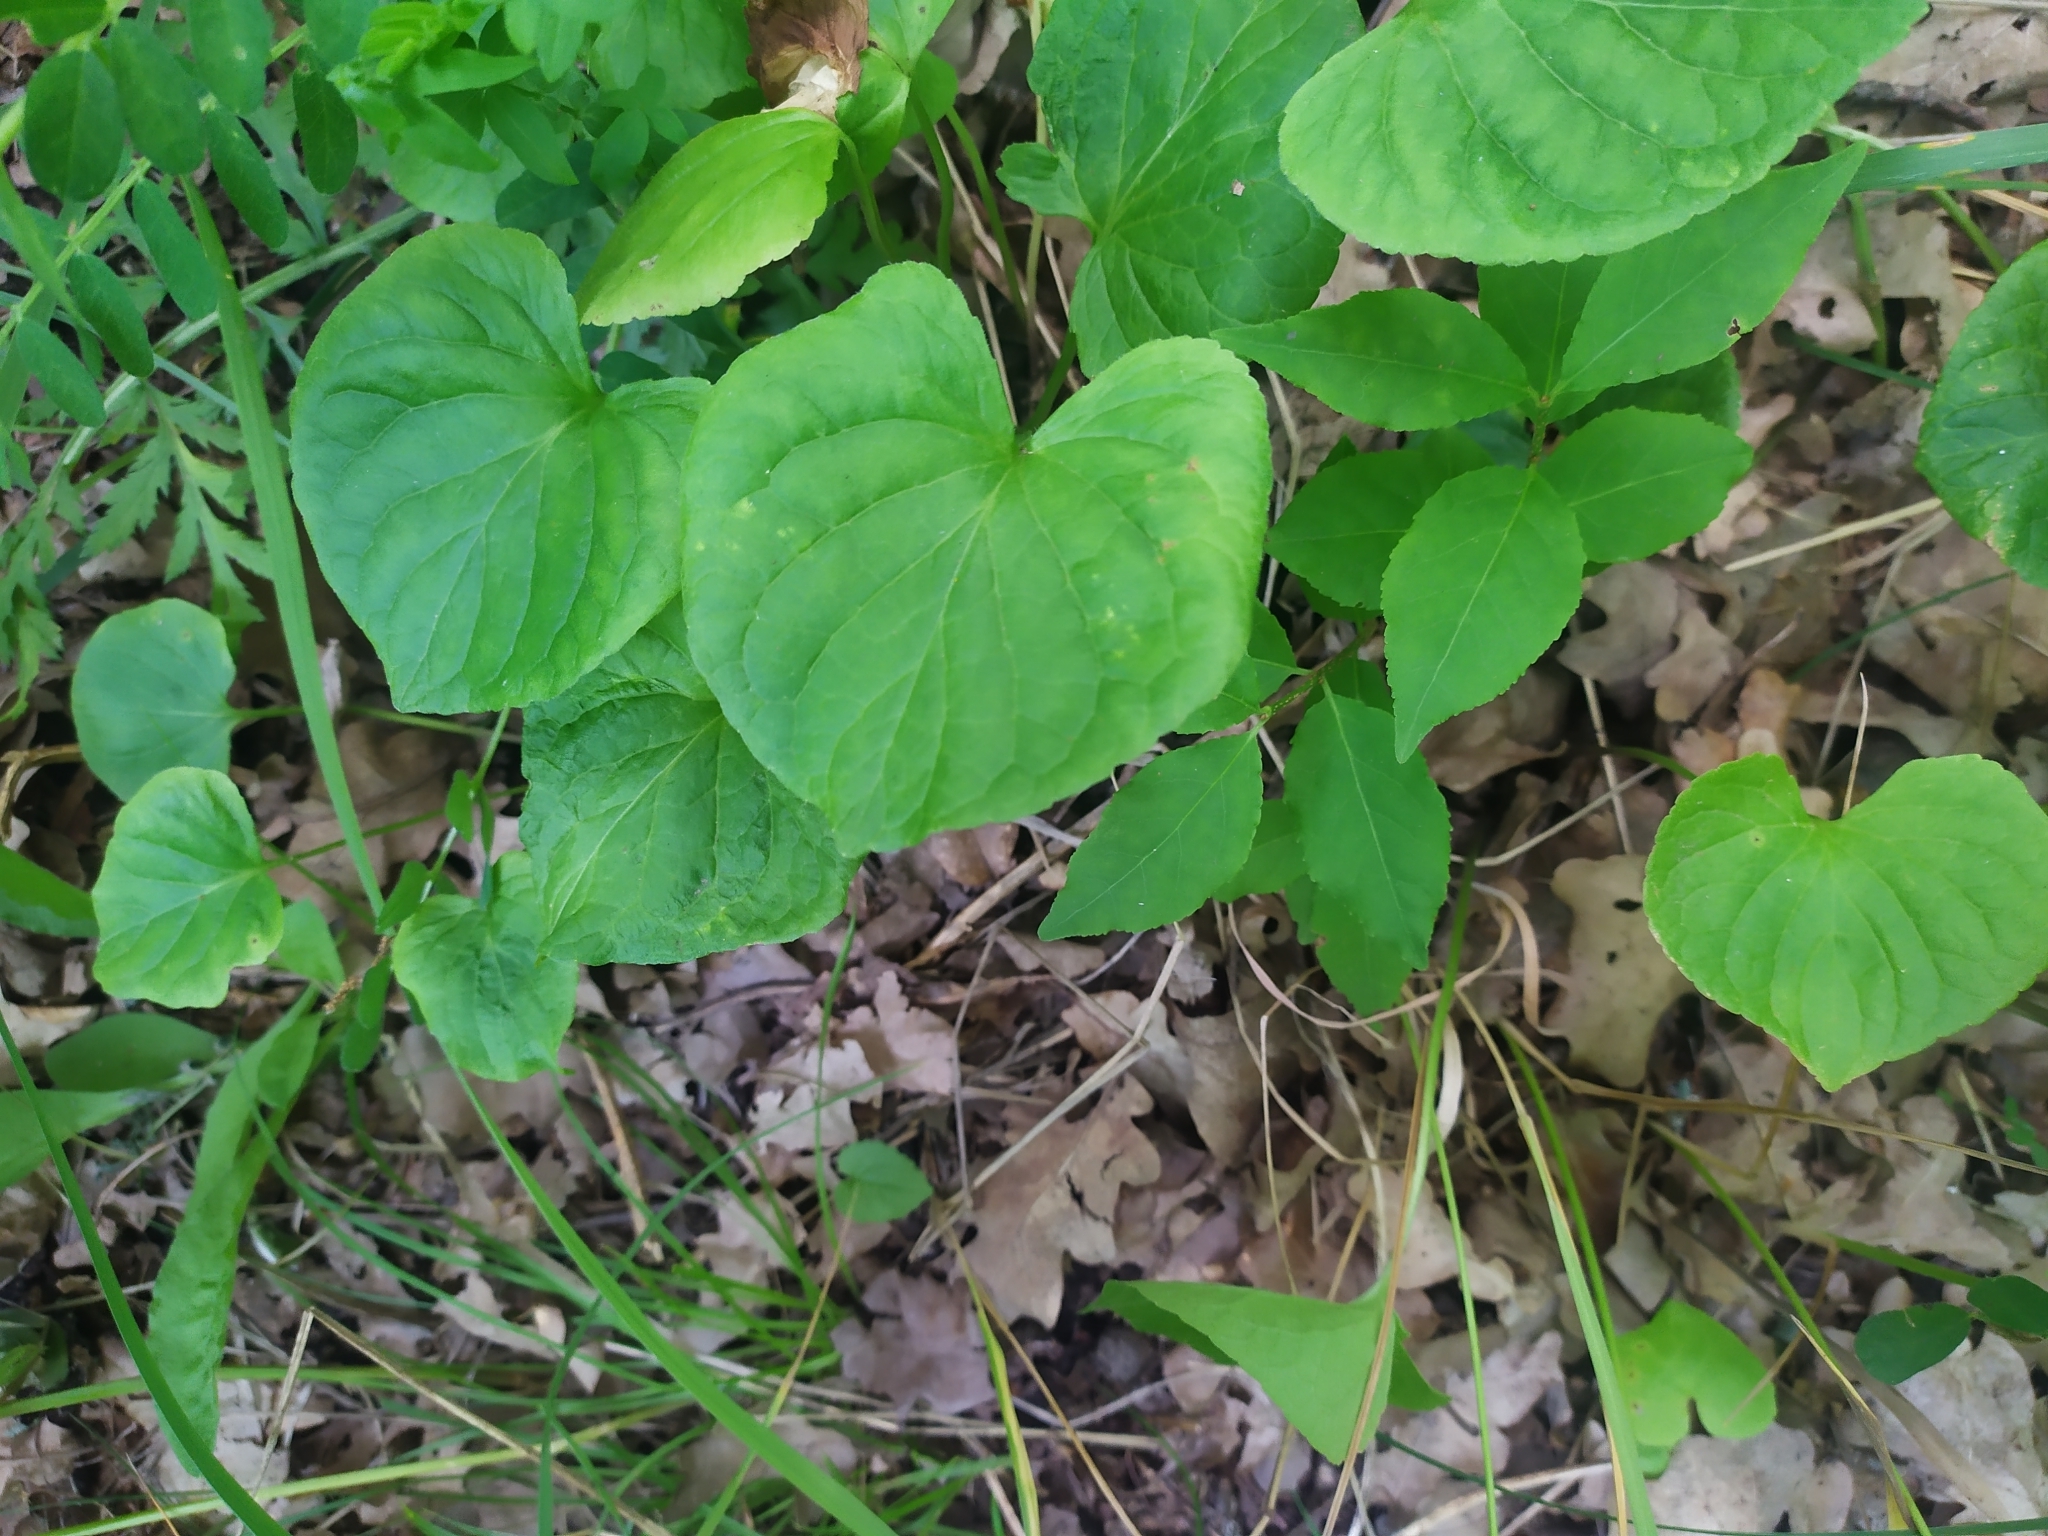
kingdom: Plantae
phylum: Tracheophyta
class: Magnoliopsida
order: Malpighiales
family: Violaceae
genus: Viola
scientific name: Viola mirabilis
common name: Wonder violet
